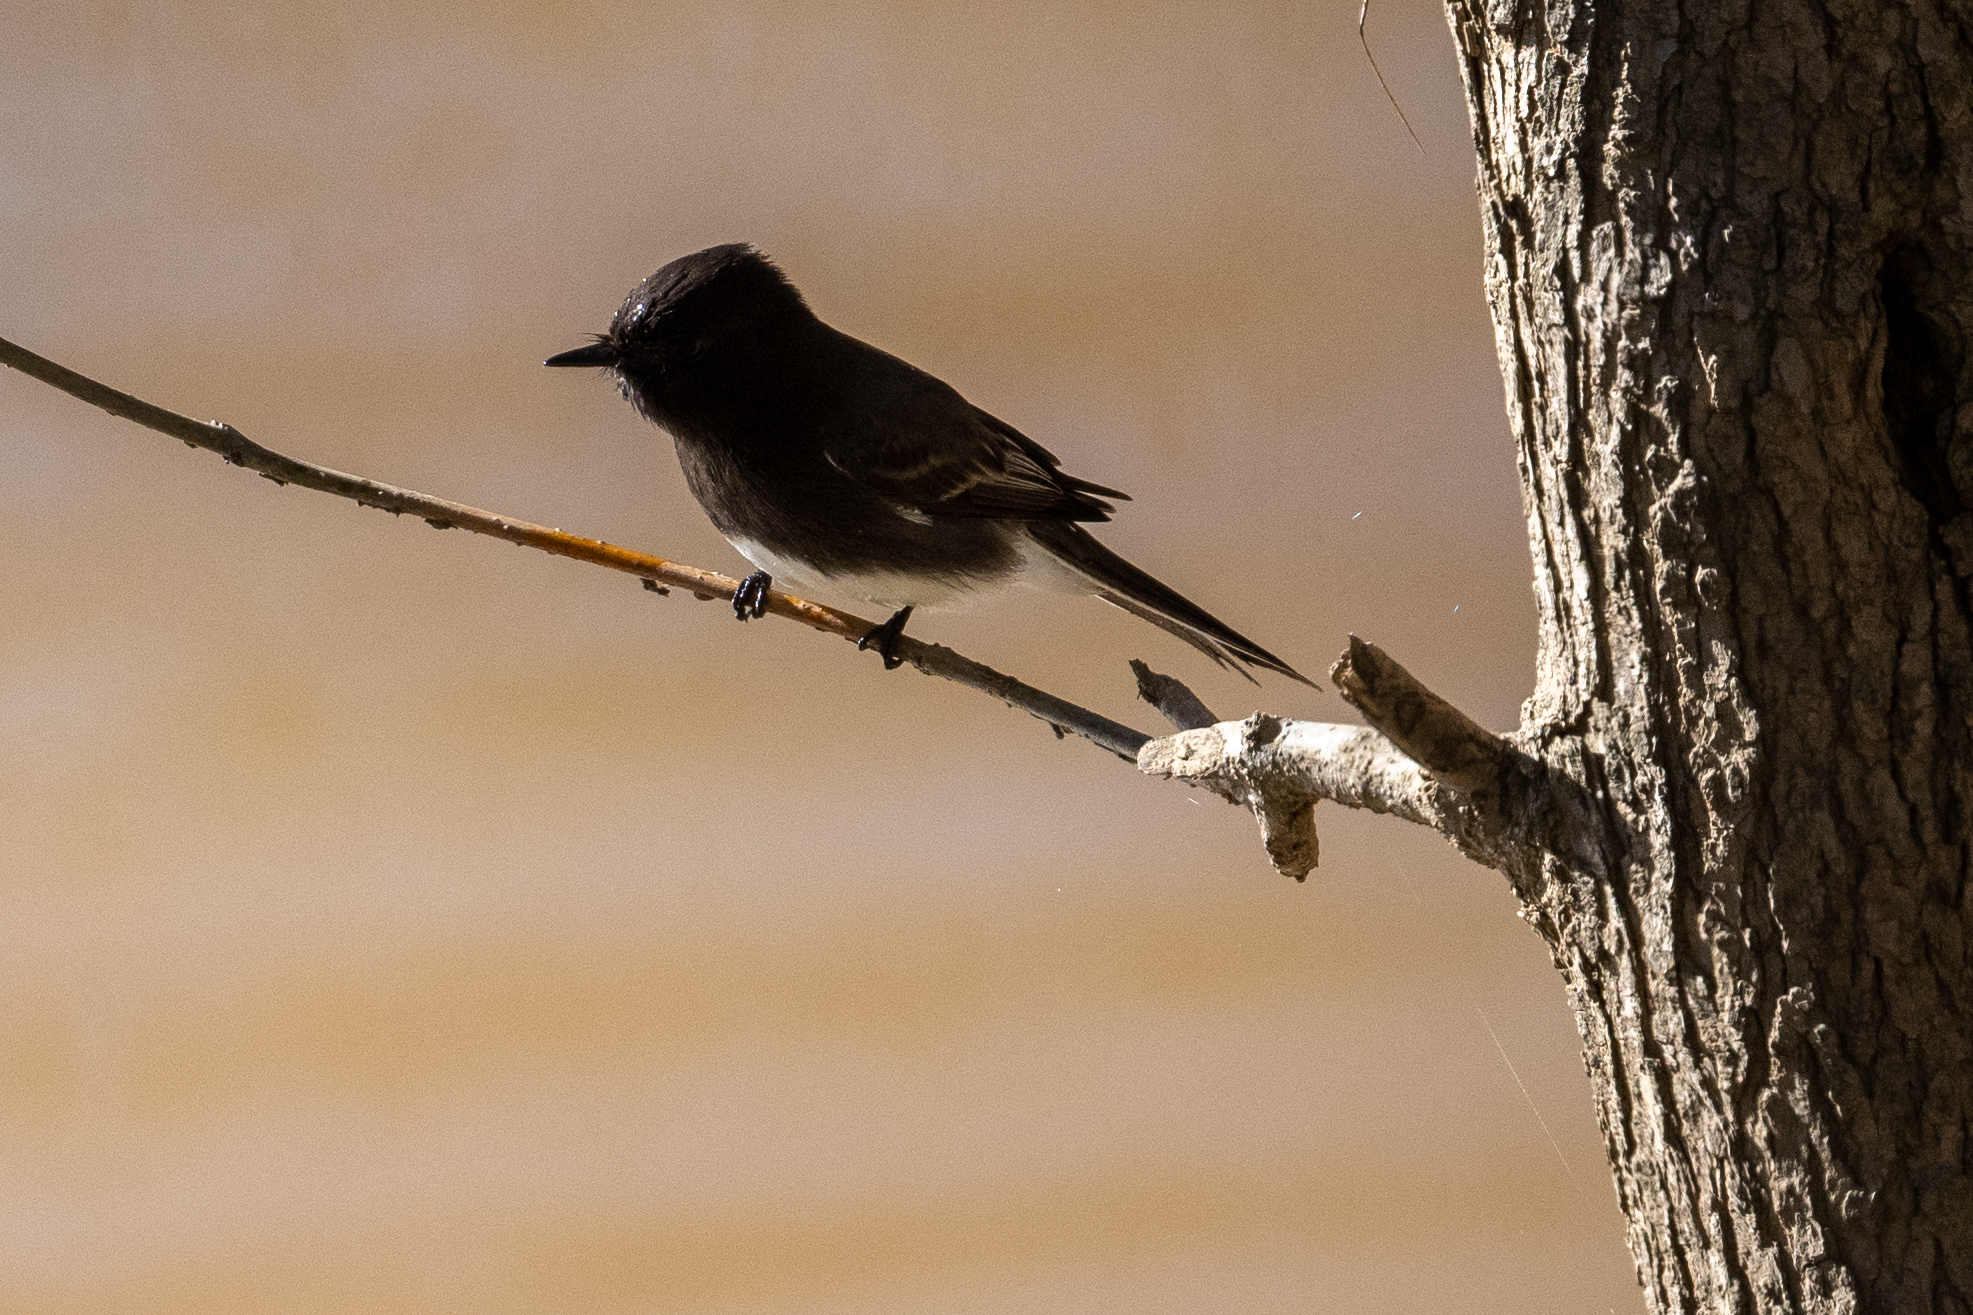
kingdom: Animalia
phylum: Chordata
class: Aves
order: Passeriformes
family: Tyrannidae
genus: Sayornis
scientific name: Sayornis nigricans
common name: Black phoebe
